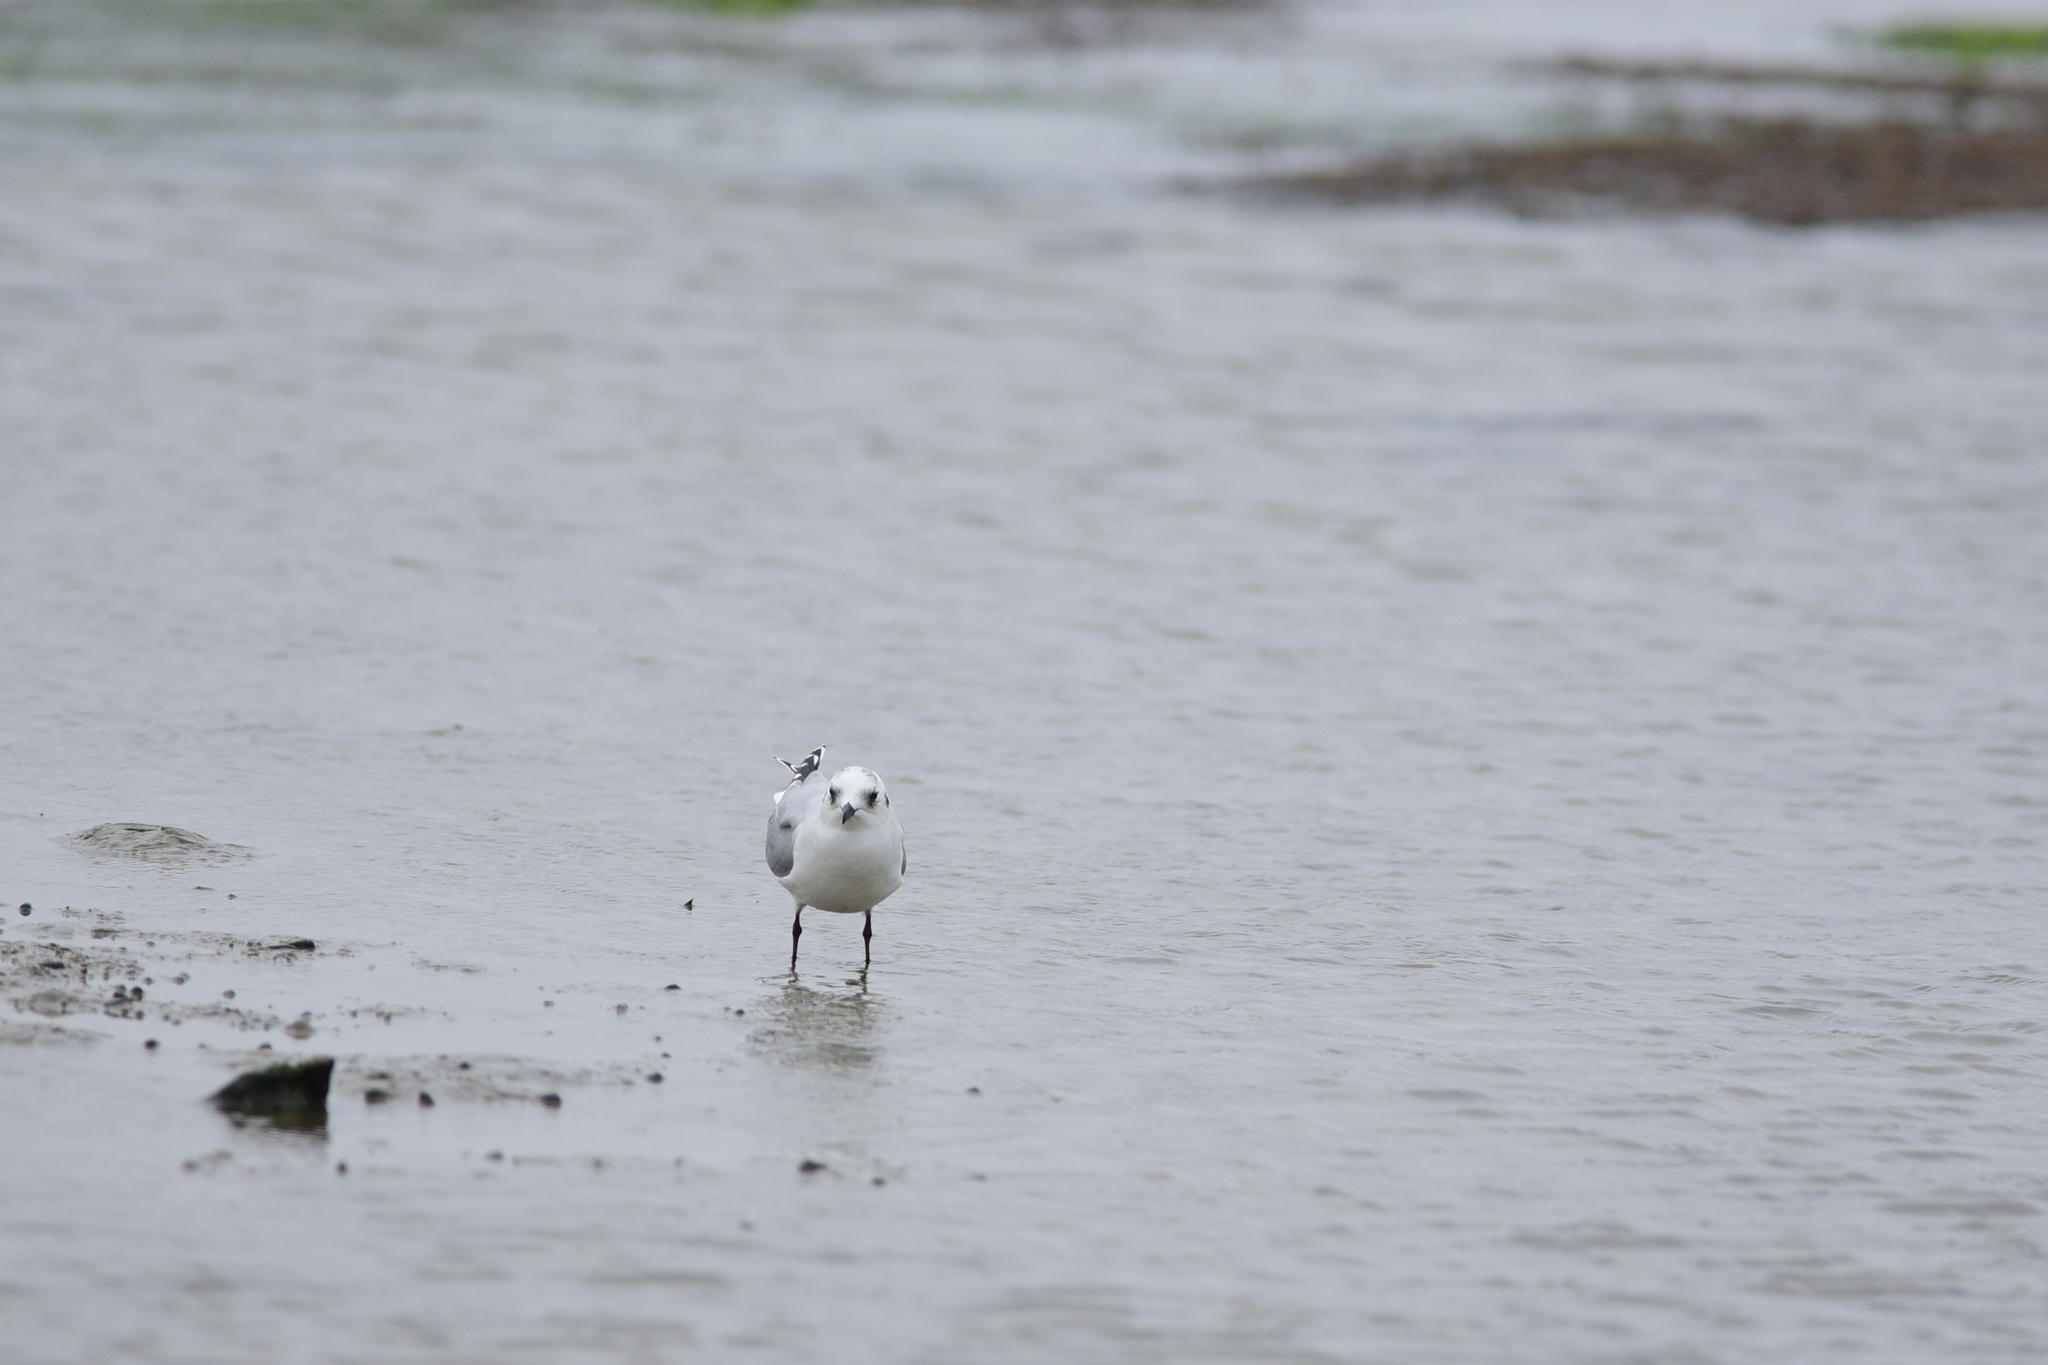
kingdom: Animalia
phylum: Chordata
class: Aves
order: Charadriiformes
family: Laridae
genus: Chroicocephalus
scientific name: Chroicocephalus saundersi
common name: Saunders's gull
